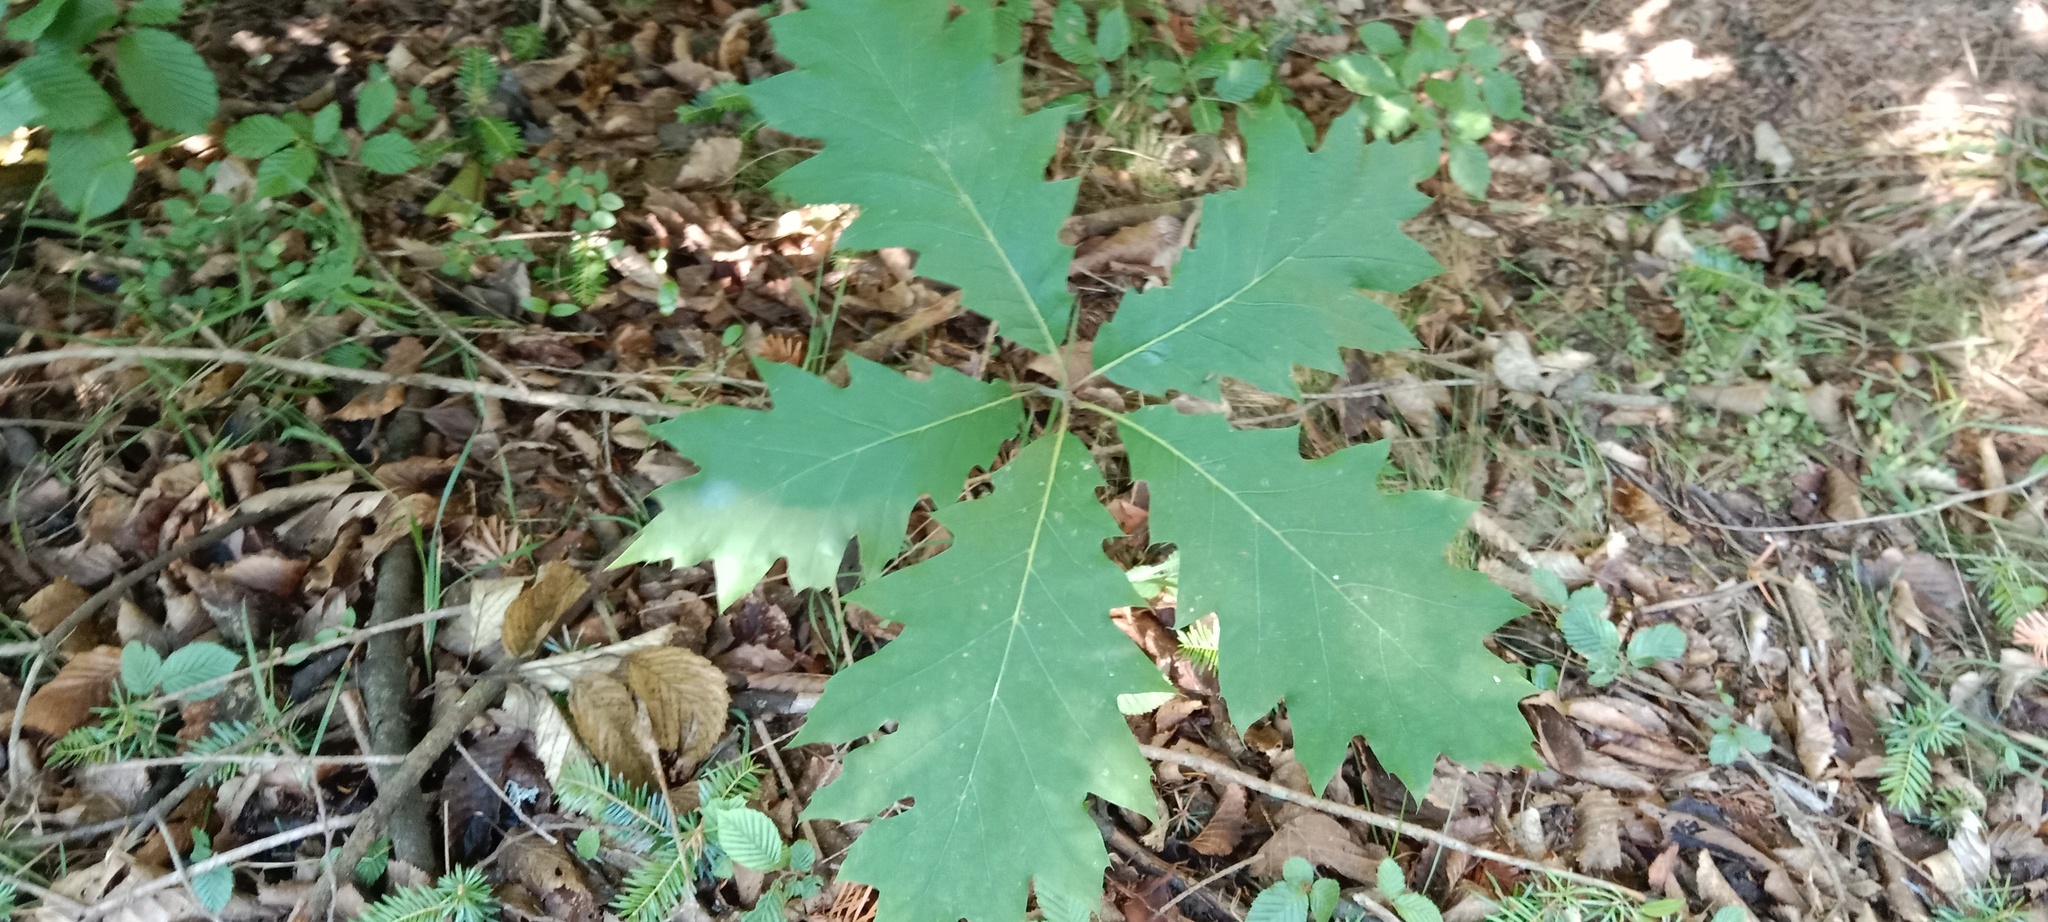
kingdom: Plantae
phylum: Tracheophyta
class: Magnoliopsida
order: Fagales
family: Fagaceae
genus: Quercus
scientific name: Quercus rubra
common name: Red oak
